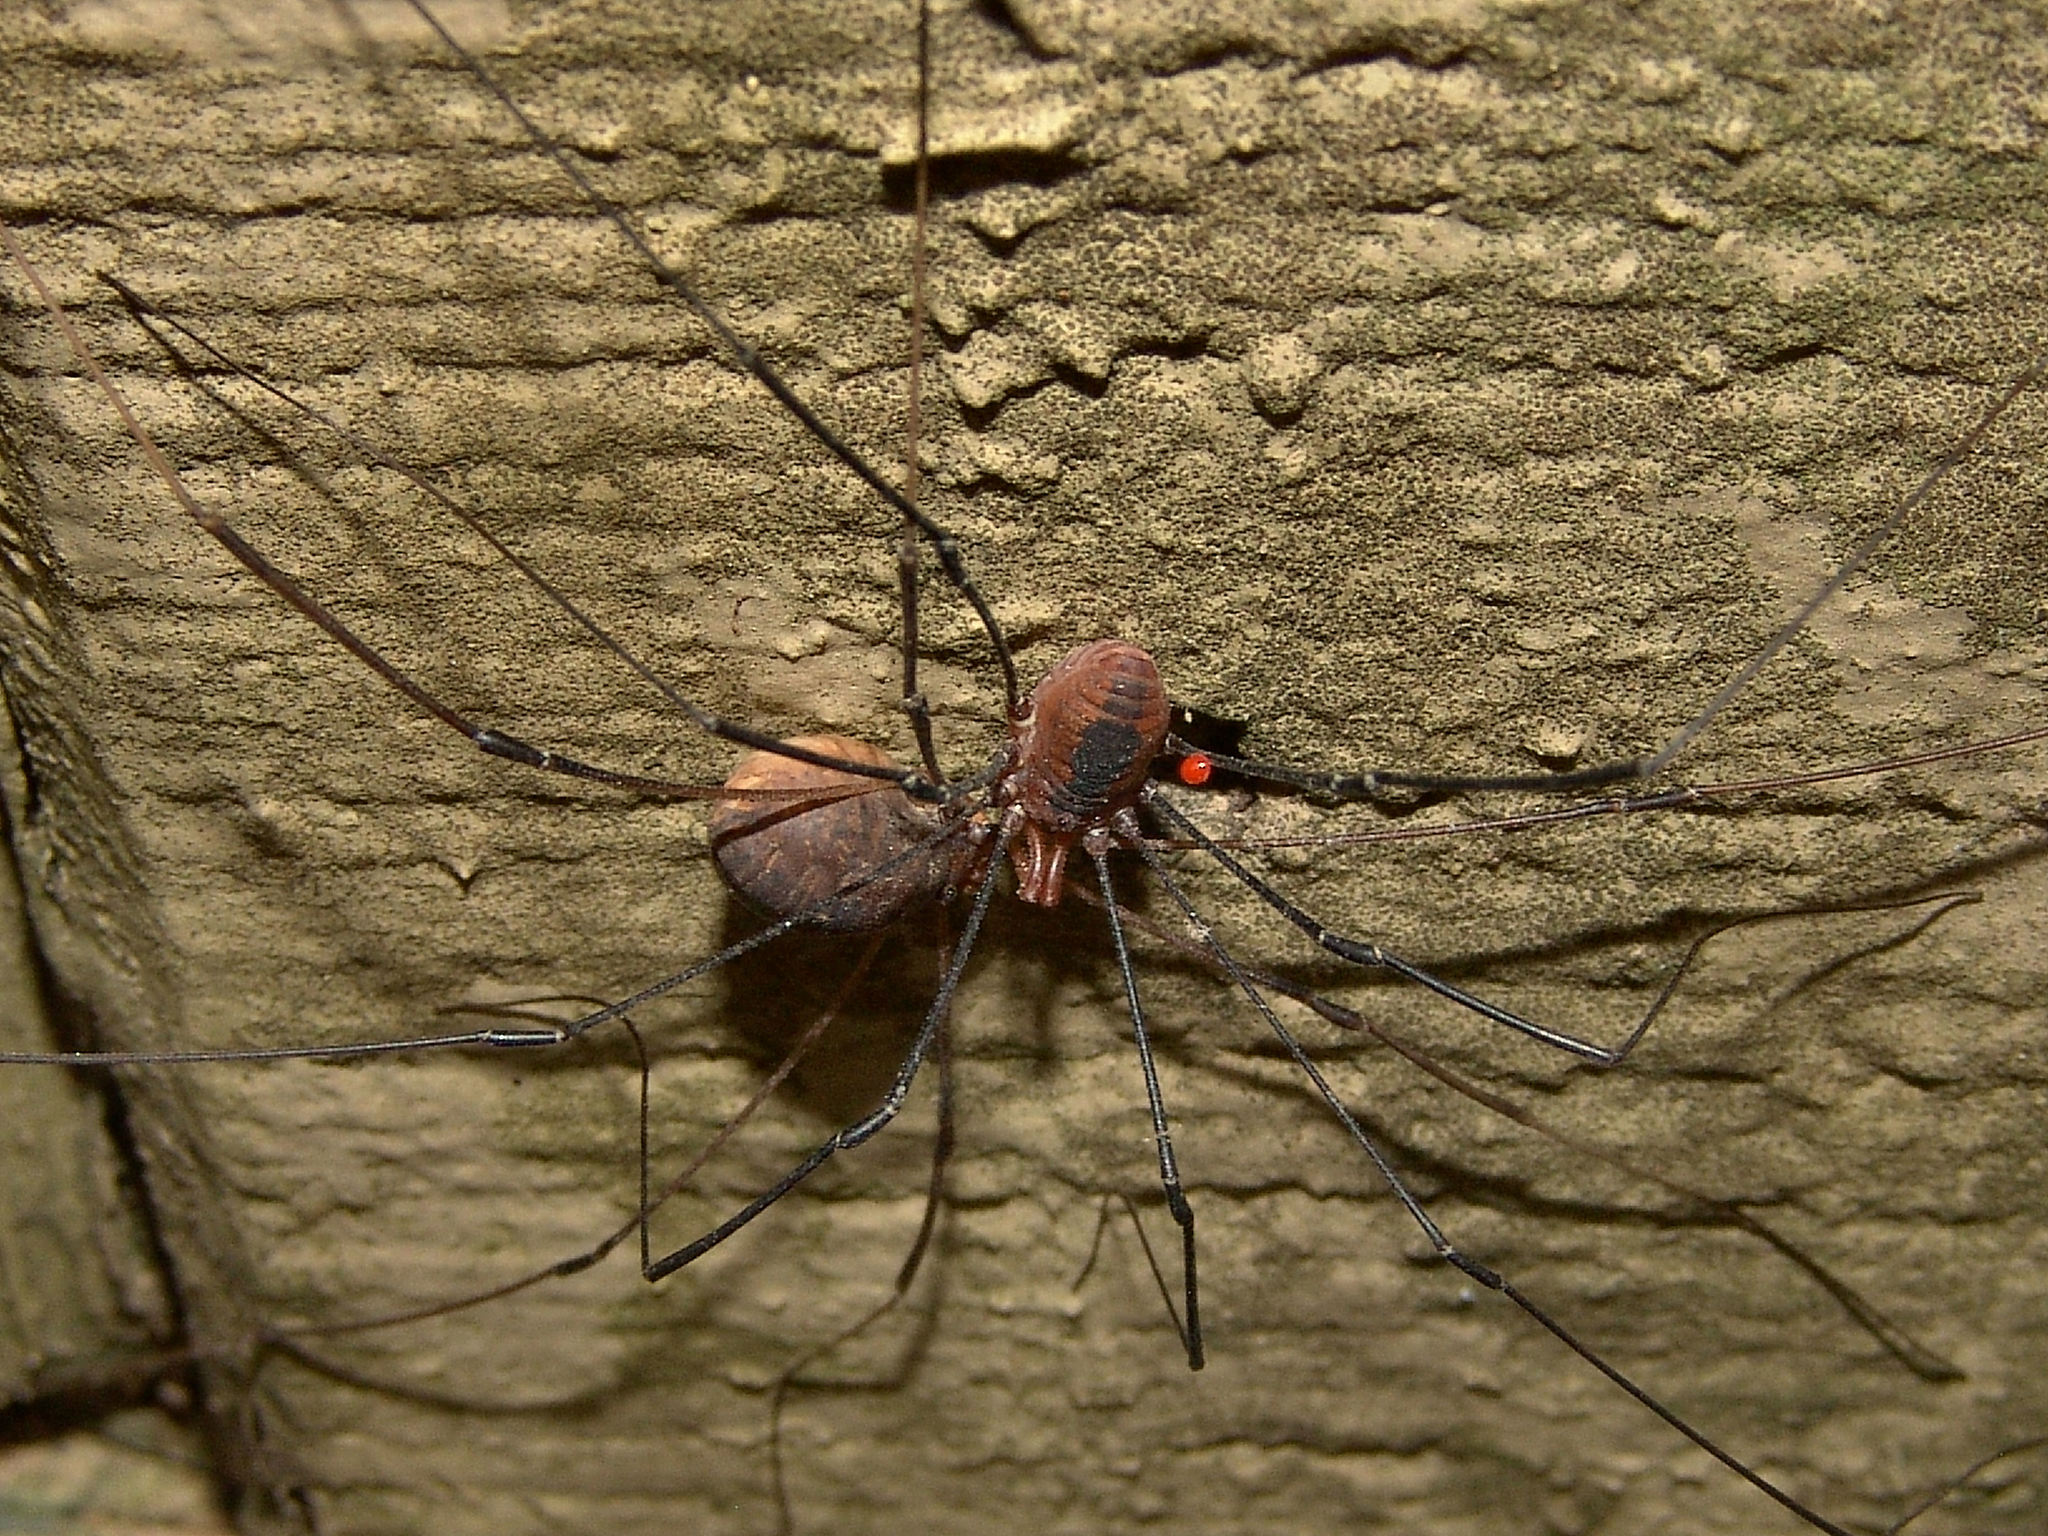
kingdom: Animalia
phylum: Arthropoda
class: Arachnida
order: Opiliones
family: Sclerosomatidae
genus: Leiobunum
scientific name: Leiobunum vittatum
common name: Eastern harvestman
